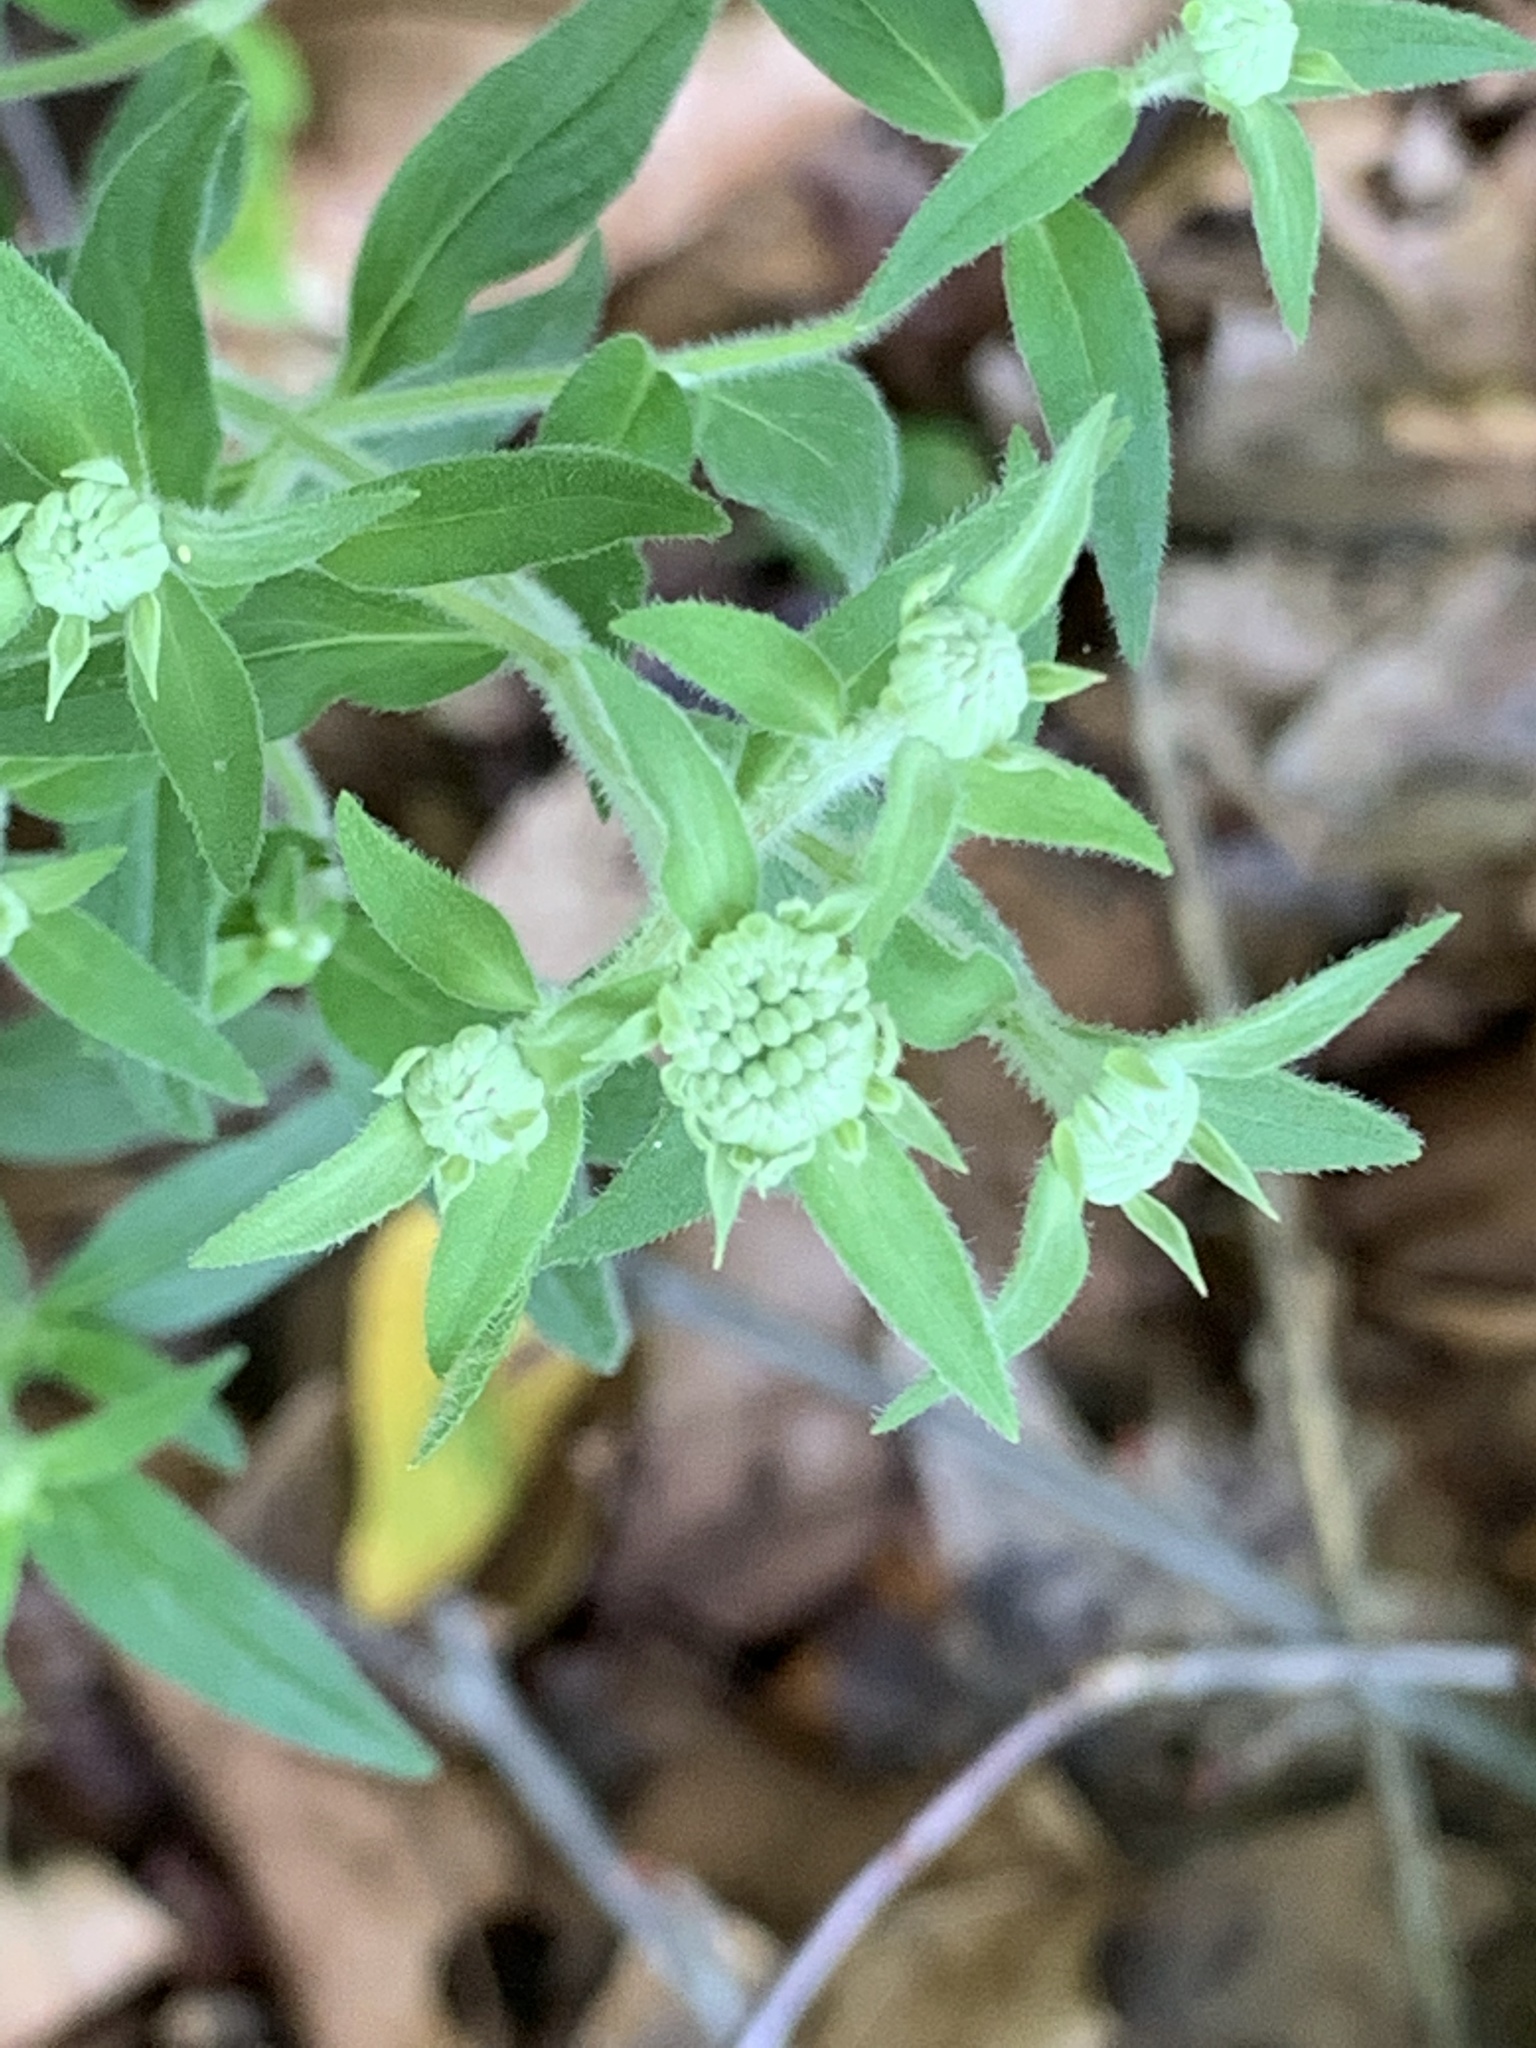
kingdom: Plantae
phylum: Tracheophyta
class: Magnoliopsida
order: Lamiales
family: Lamiaceae
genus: Pycnanthemum
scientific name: Pycnanthemum verticillatum
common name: Whorled mountain-mint
